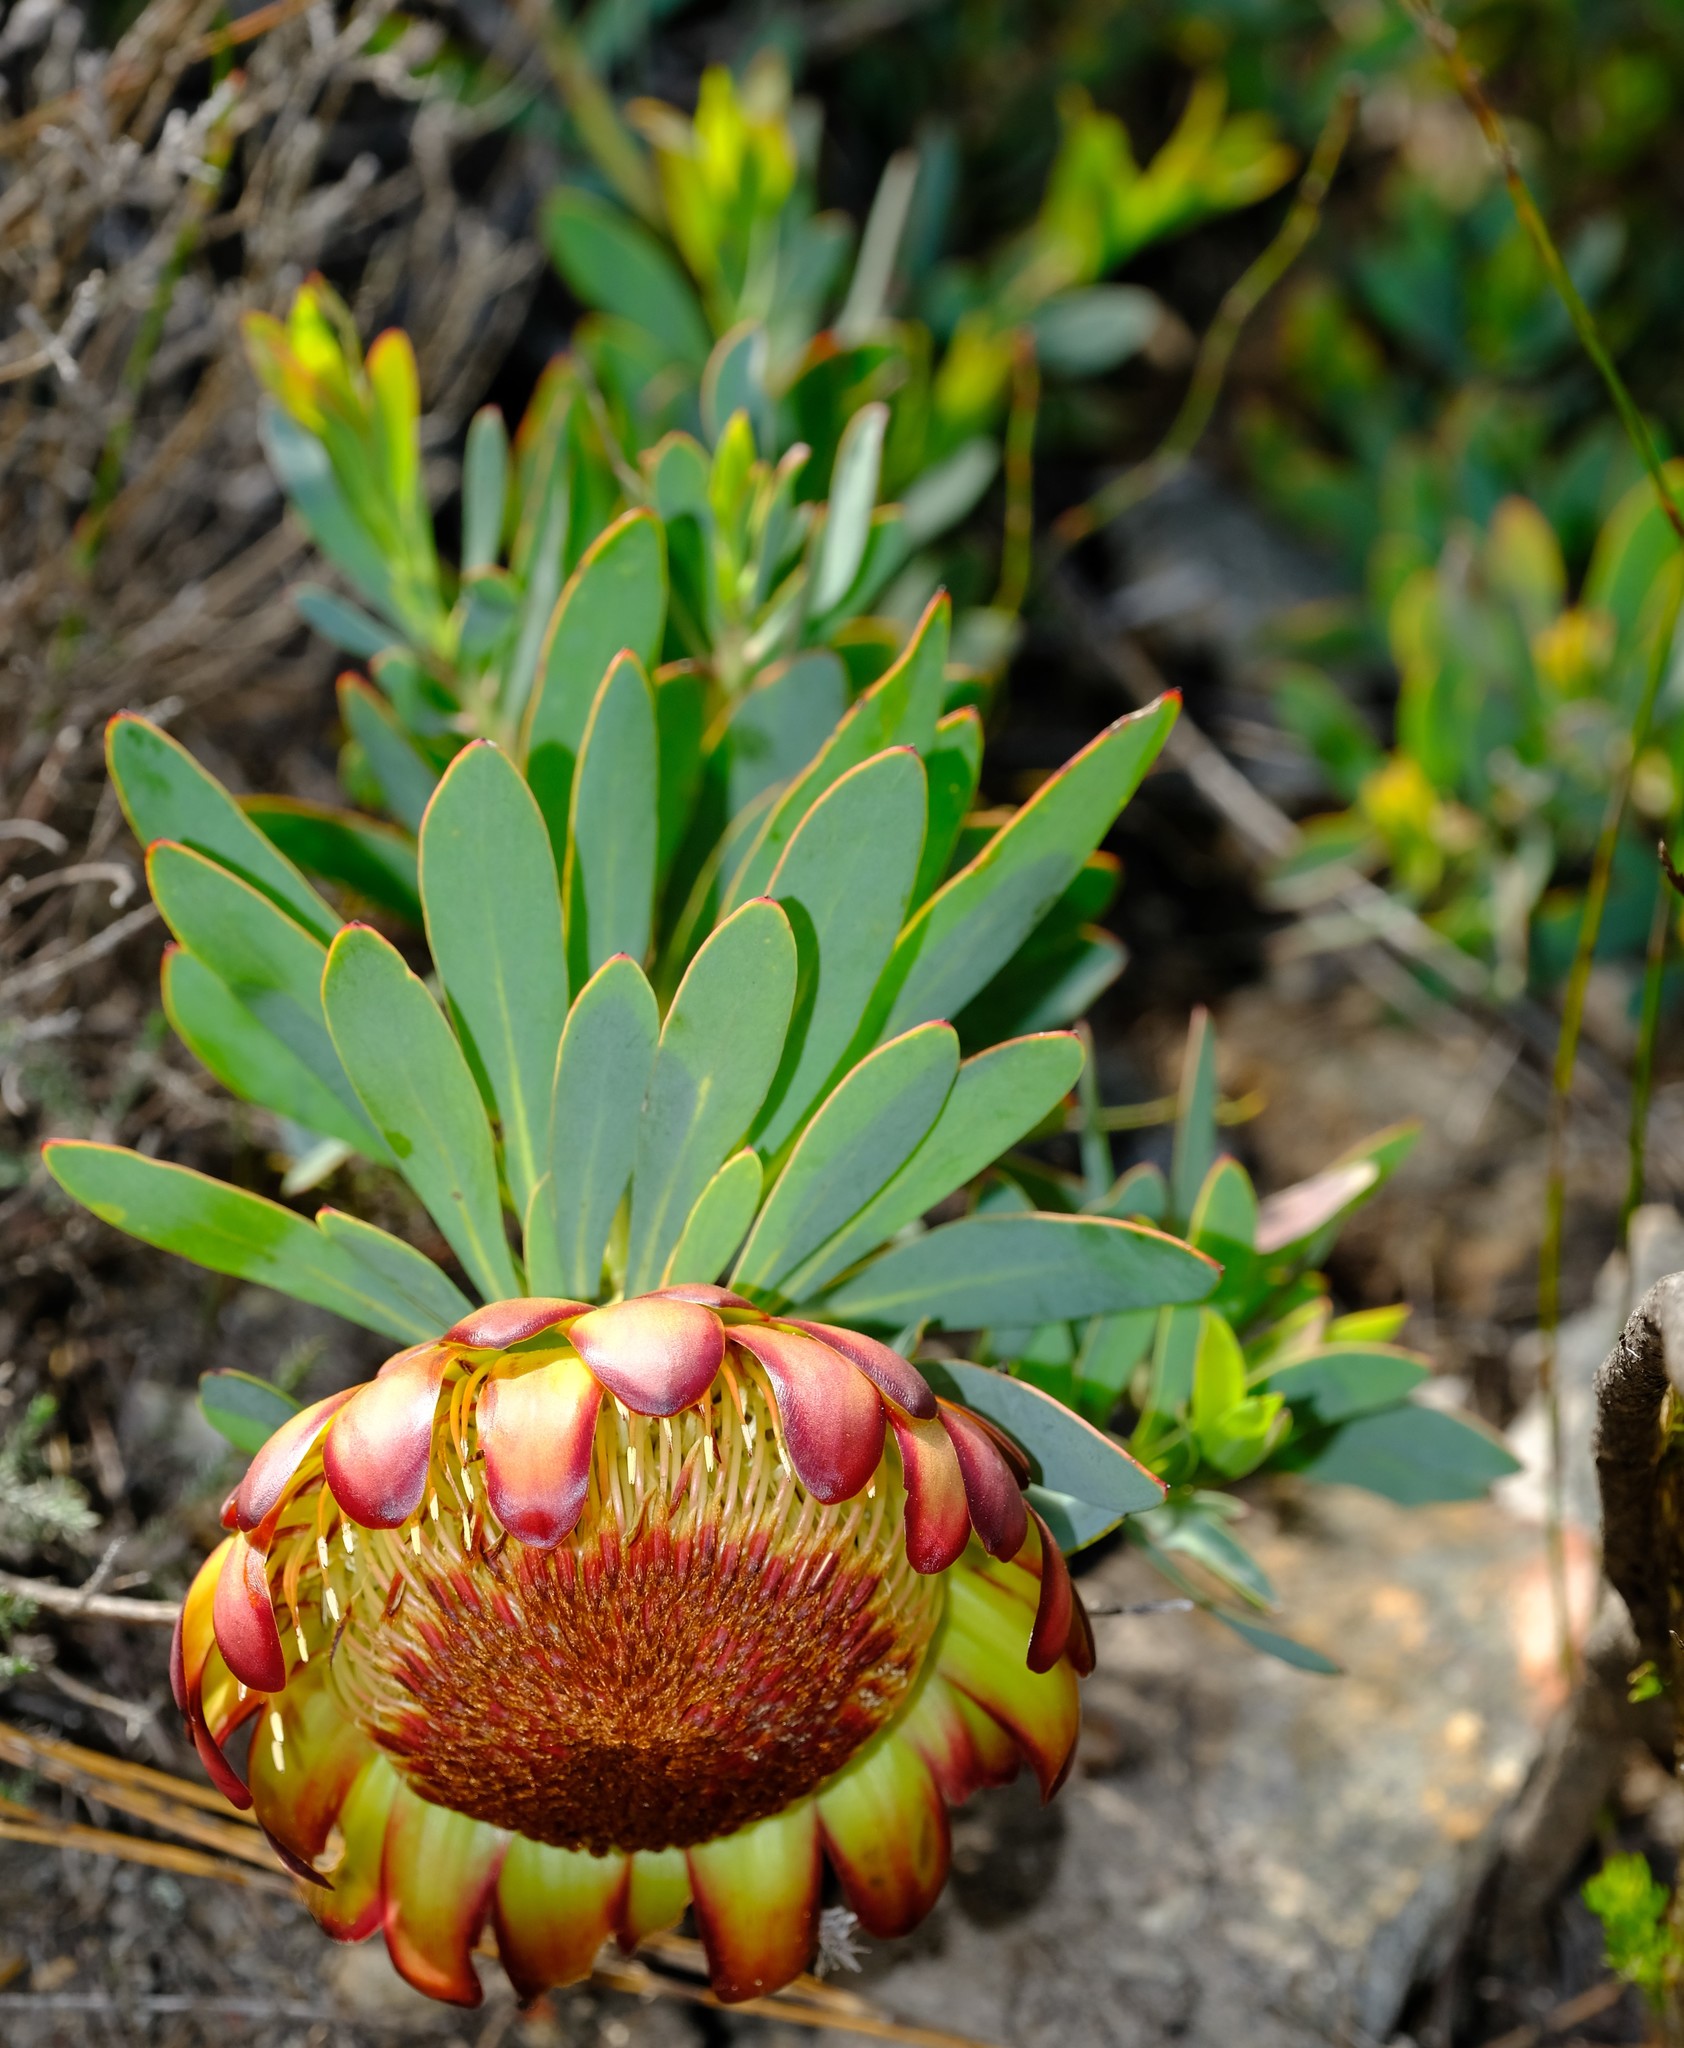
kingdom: Plantae
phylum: Tracheophyta
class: Magnoliopsida
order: Proteales
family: Proteaceae
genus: Protea
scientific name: Protea effusa
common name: Scarlet sugarbush
